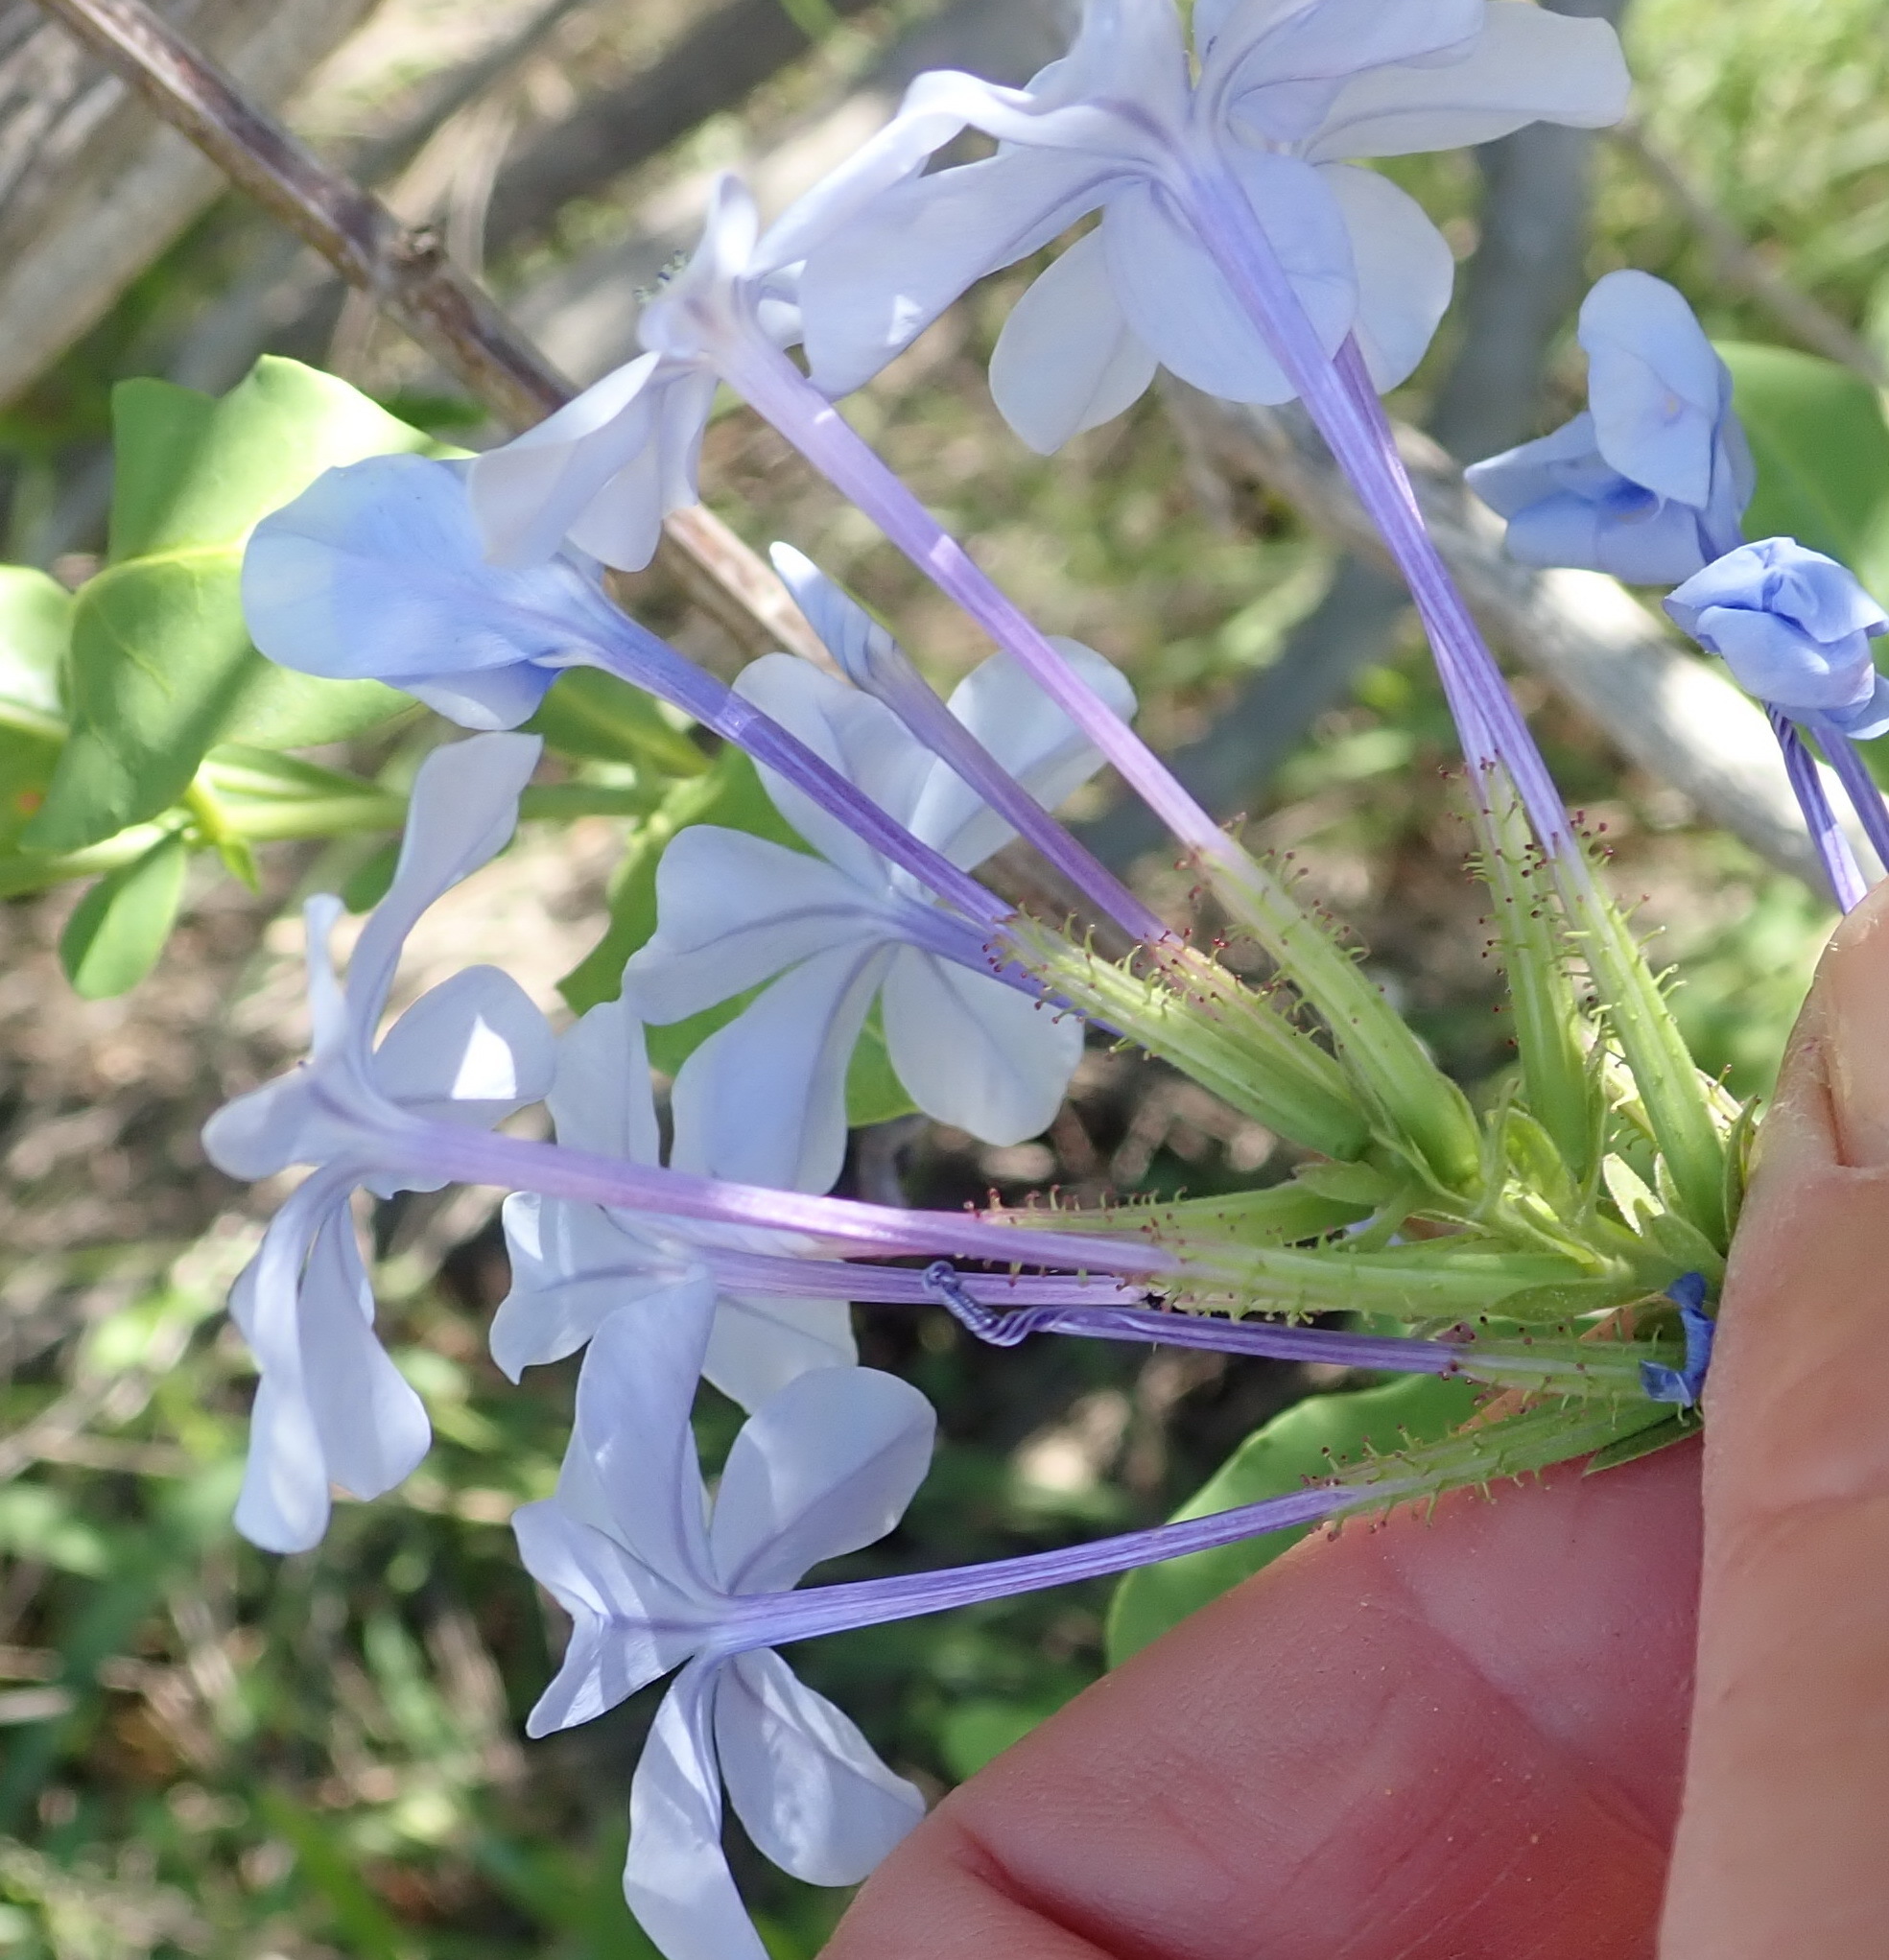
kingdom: Plantae
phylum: Tracheophyta
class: Magnoliopsida
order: Caryophyllales
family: Plumbaginaceae
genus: Plumbago
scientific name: Plumbago auriculata
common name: Cape leadwort
